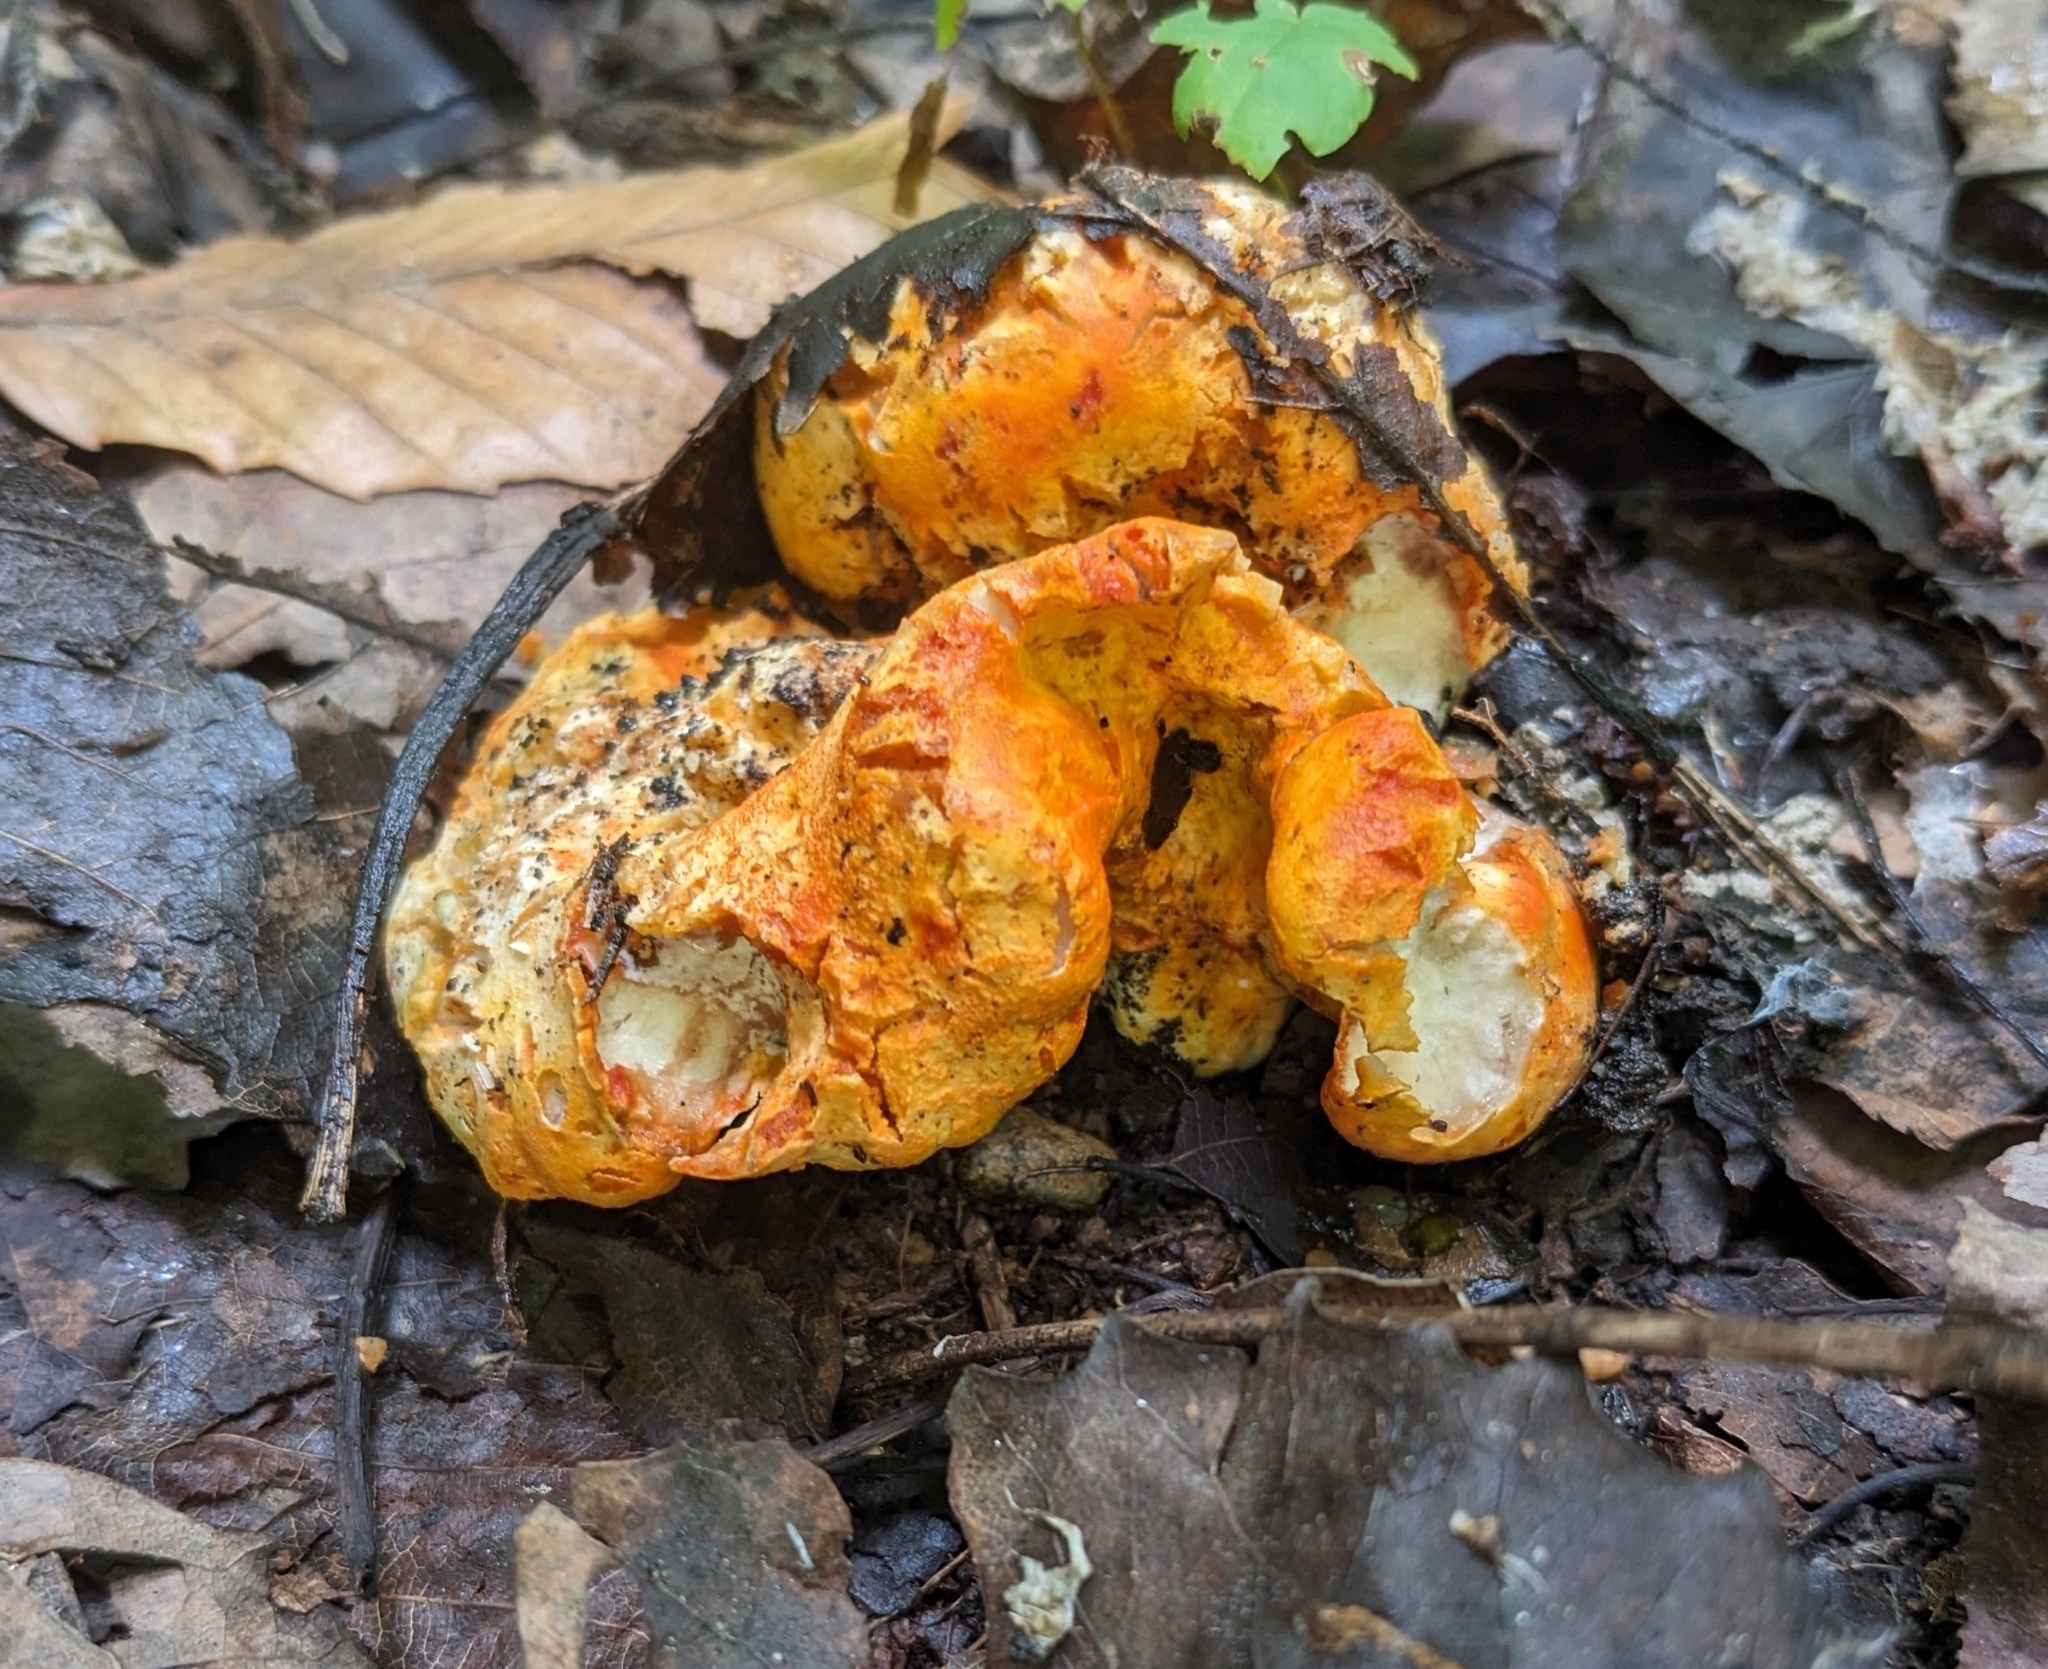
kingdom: Fungi
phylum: Ascomycota
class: Sordariomycetes
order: Hypocreales
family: Hypocreaceae
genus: Hypomyces
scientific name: Hypomyces lactifluorum
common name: Lobster mushroom
